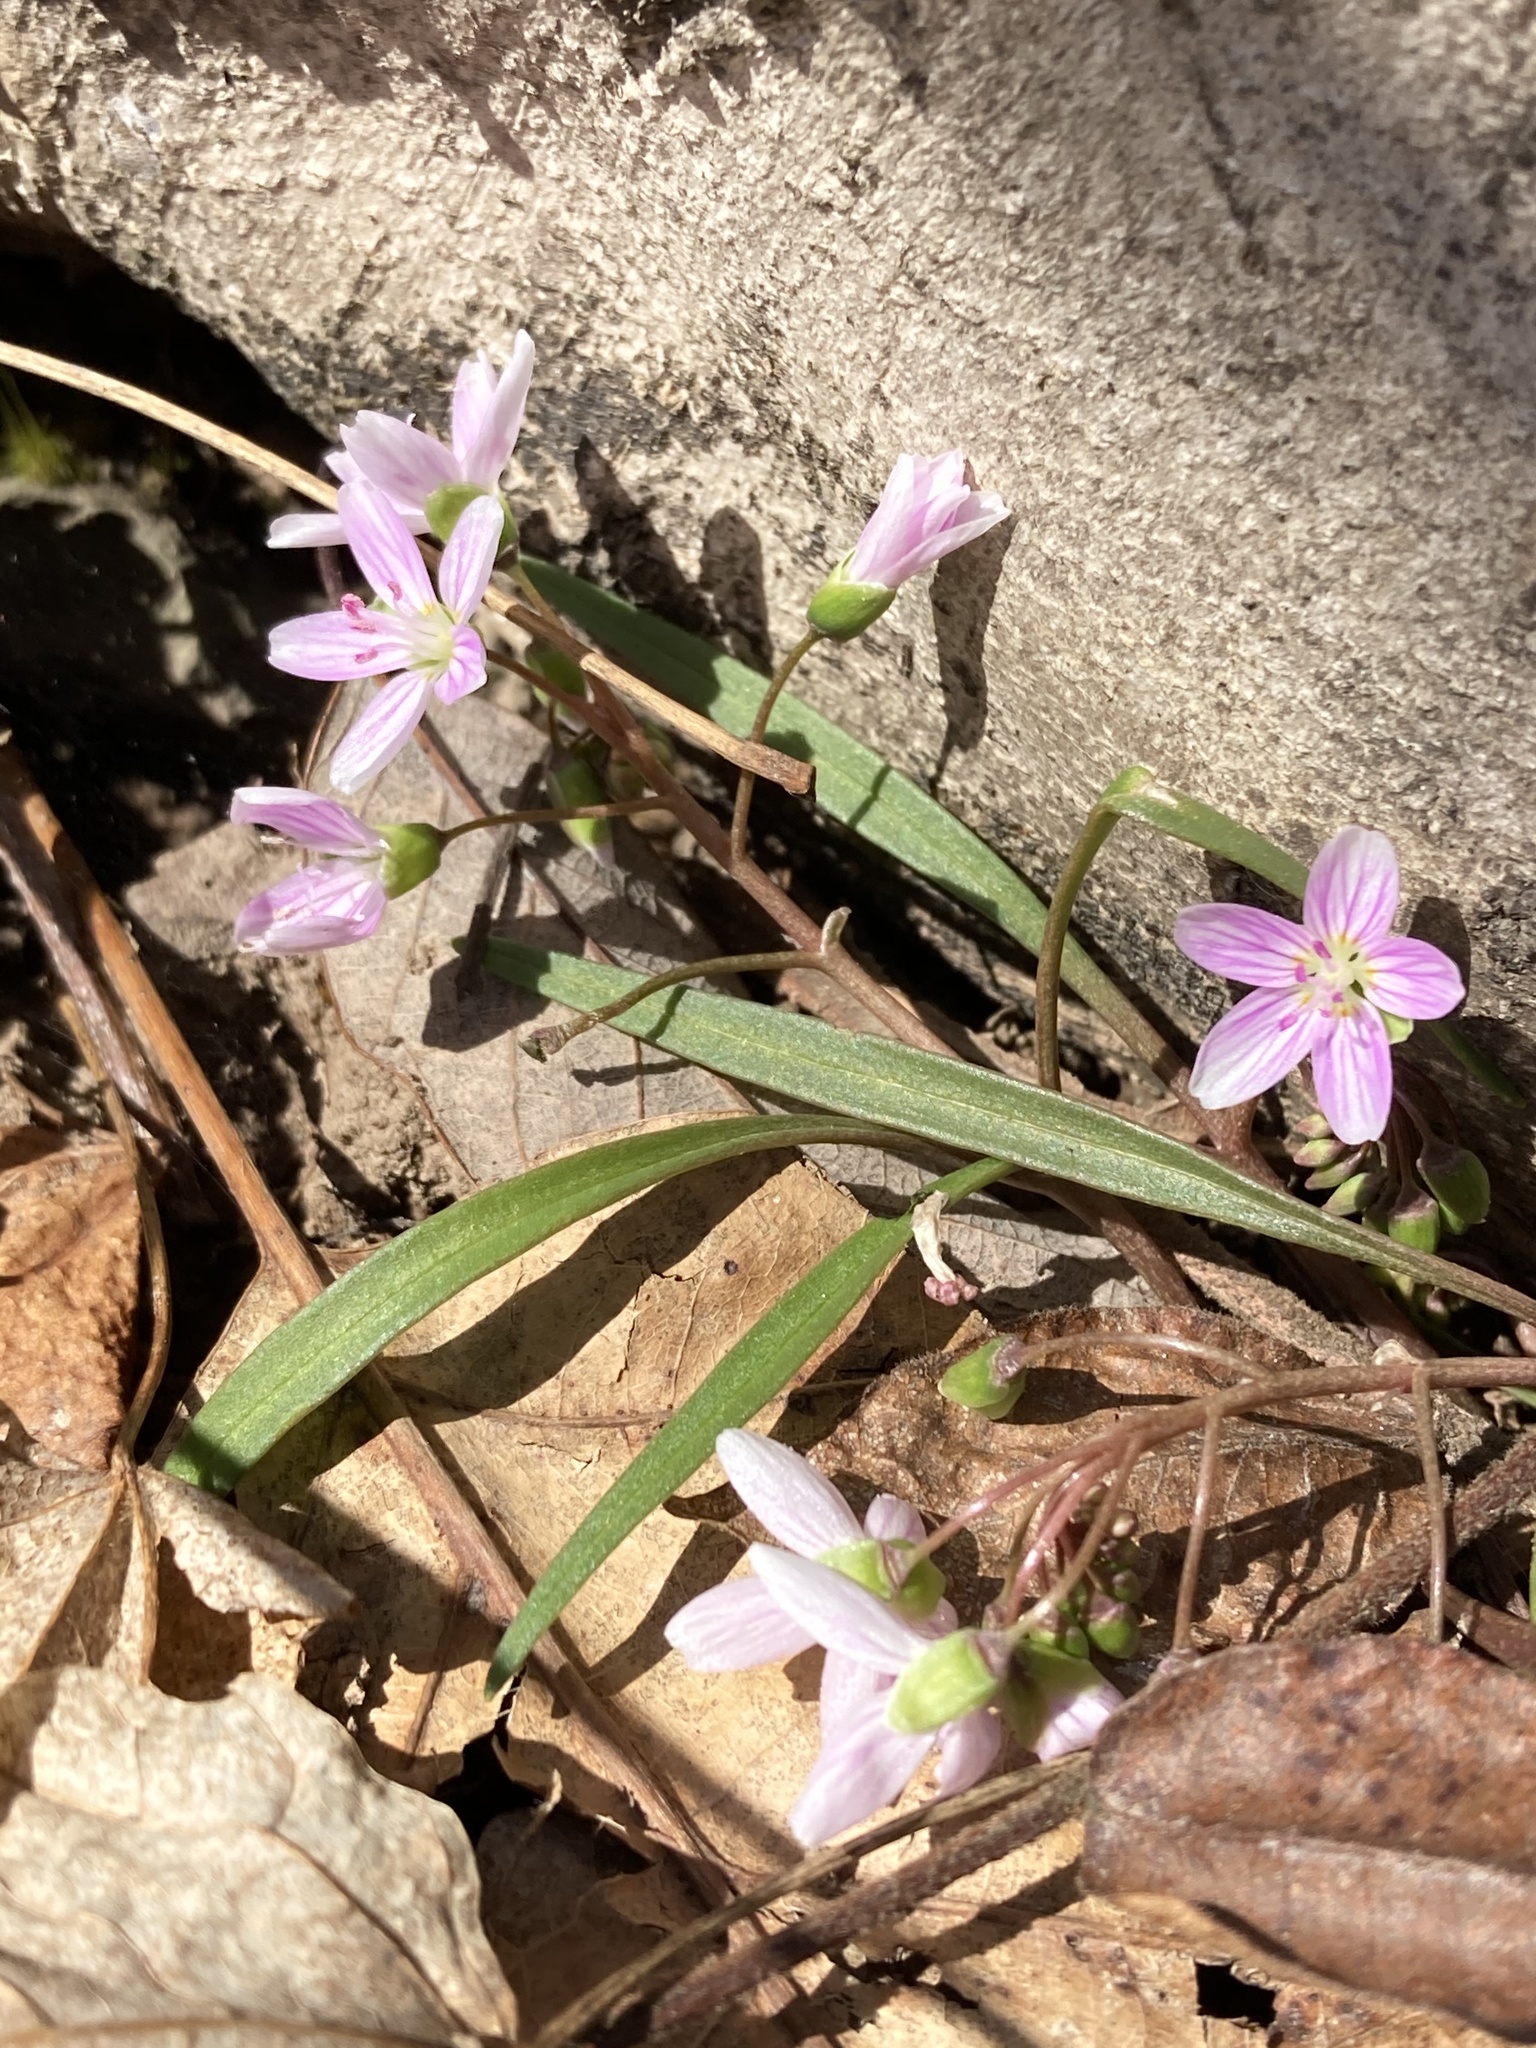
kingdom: Plantae
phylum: Tracheophyta
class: Magnoliopsida
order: Caryophyllales
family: Montiaceae
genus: Claytonia
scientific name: Claytonia virginica
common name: Virginia springbeauty
